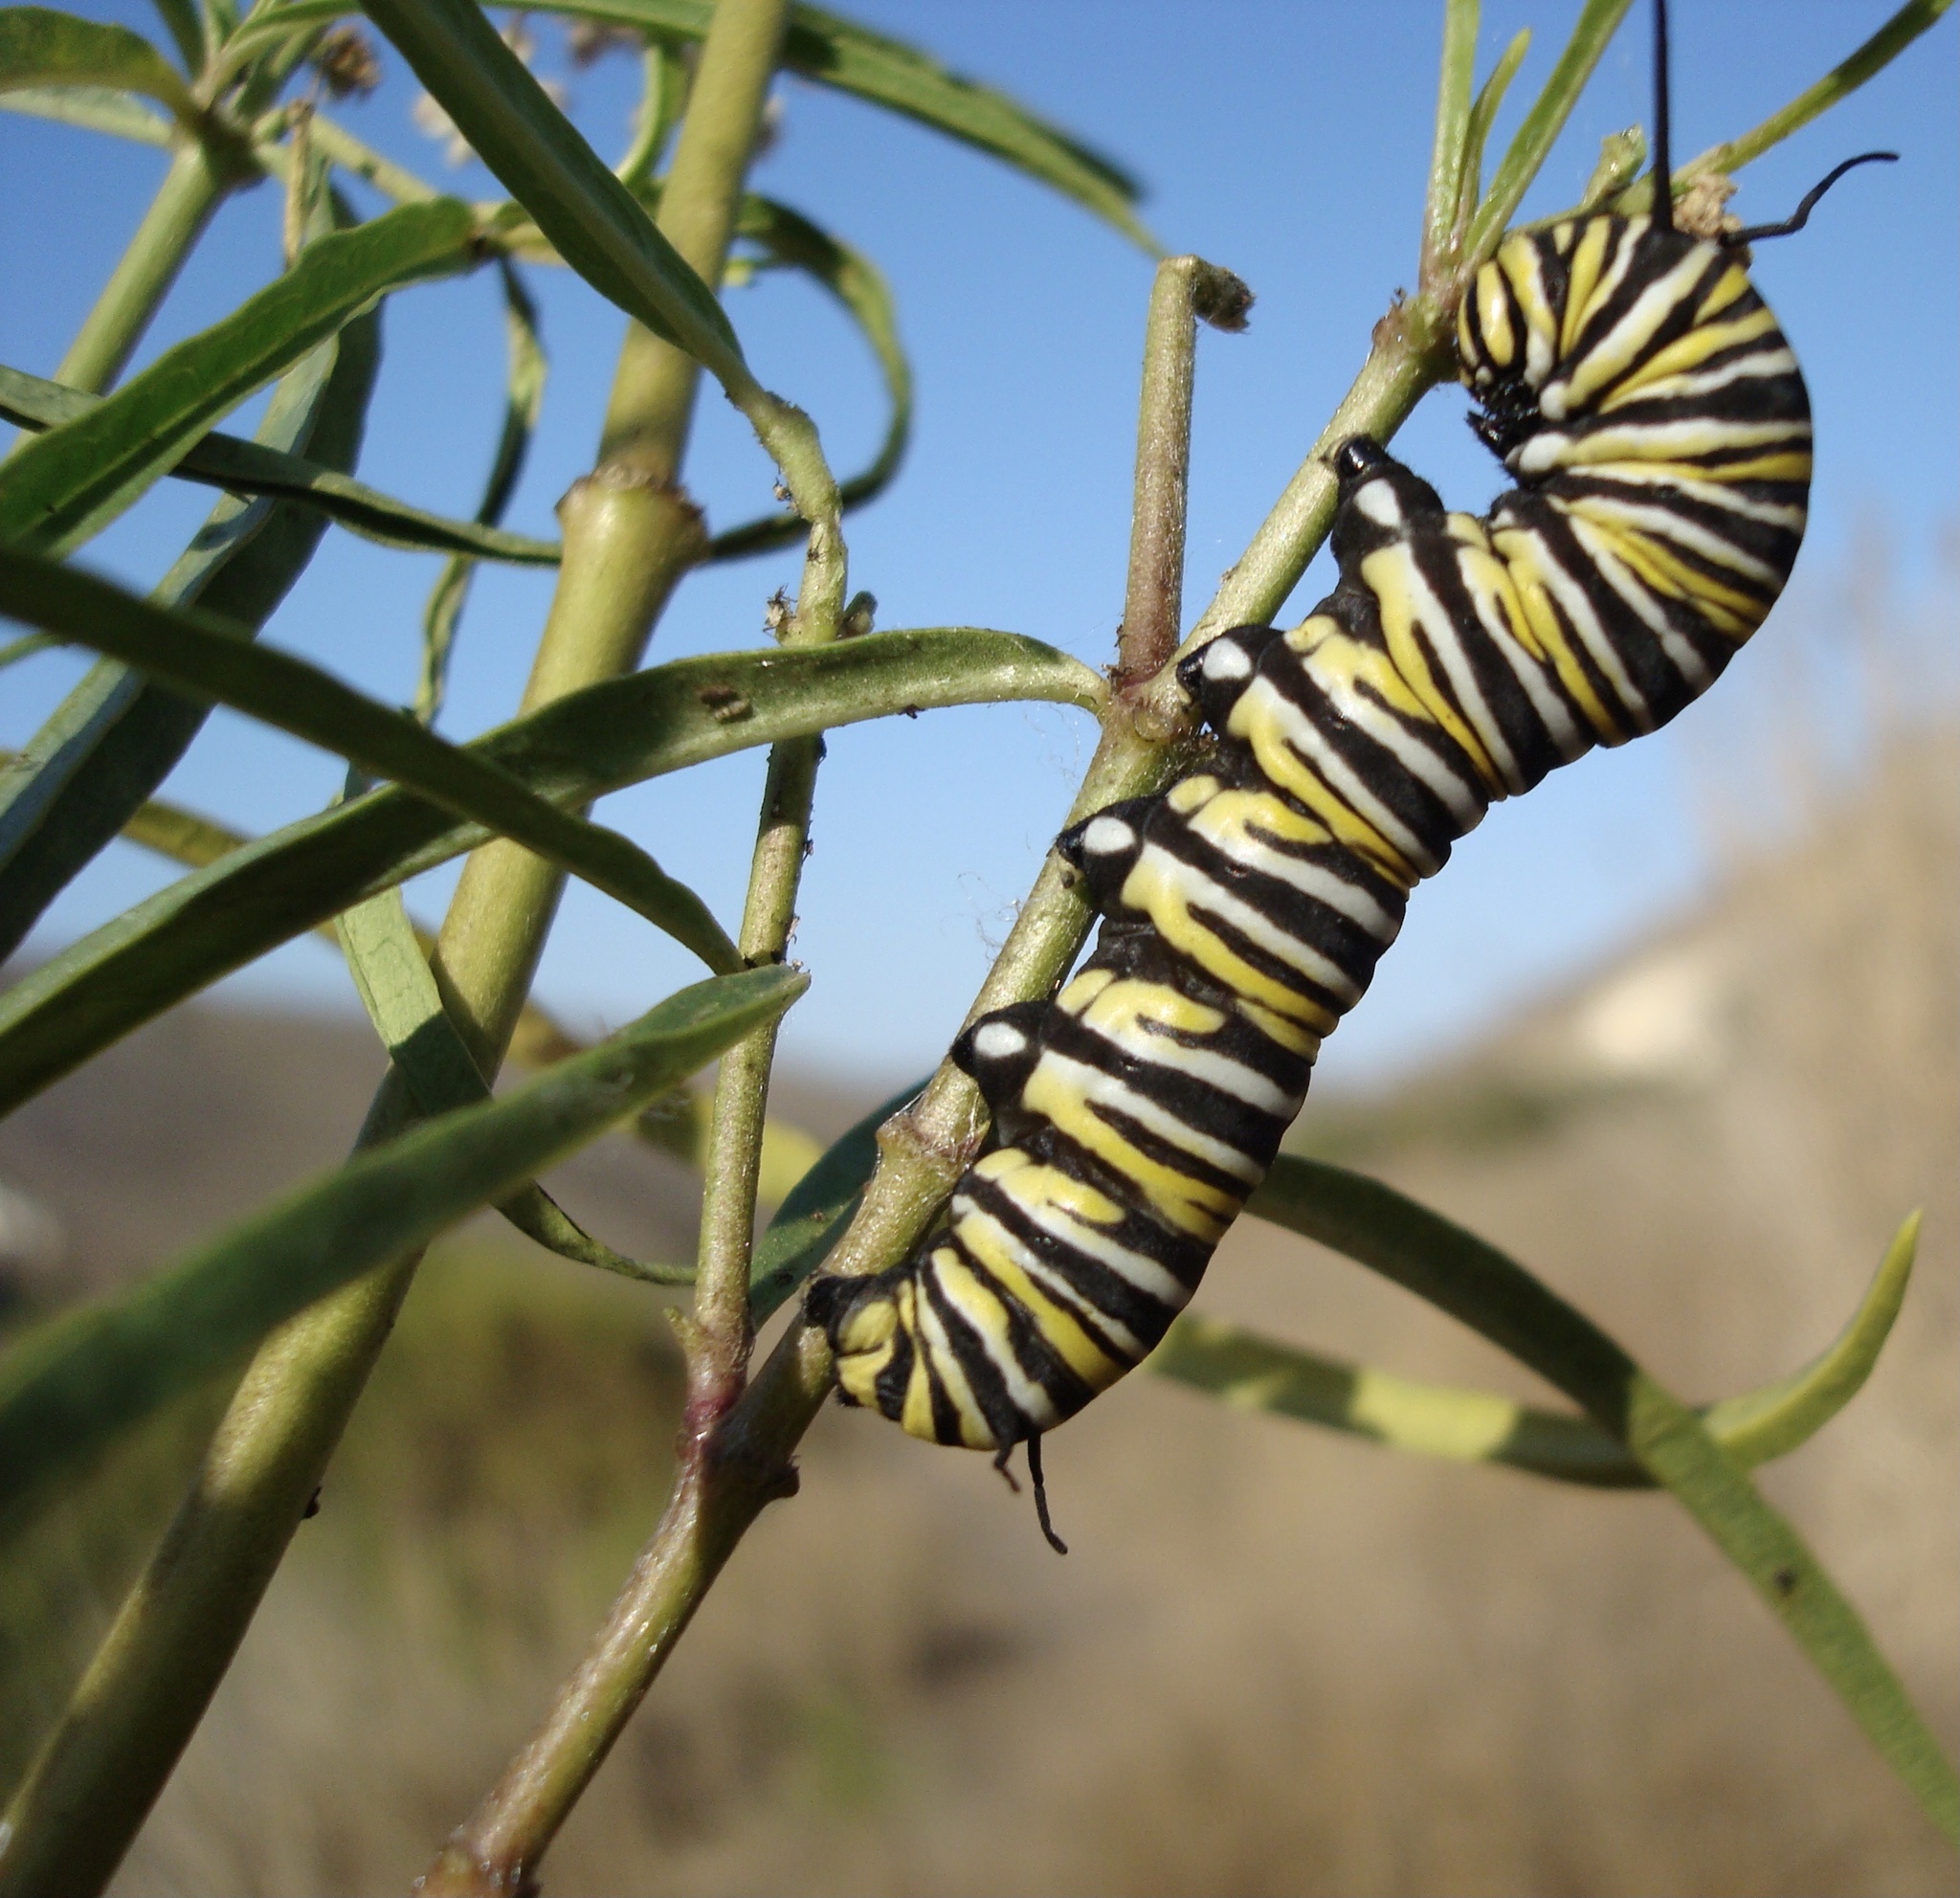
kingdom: Plantae
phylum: Tracheophyta
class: Magnoliopsida
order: Gentianales
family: Apocynaceae
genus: Asclepias
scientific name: Asclepias fascicularis
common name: Mexican milkweed
